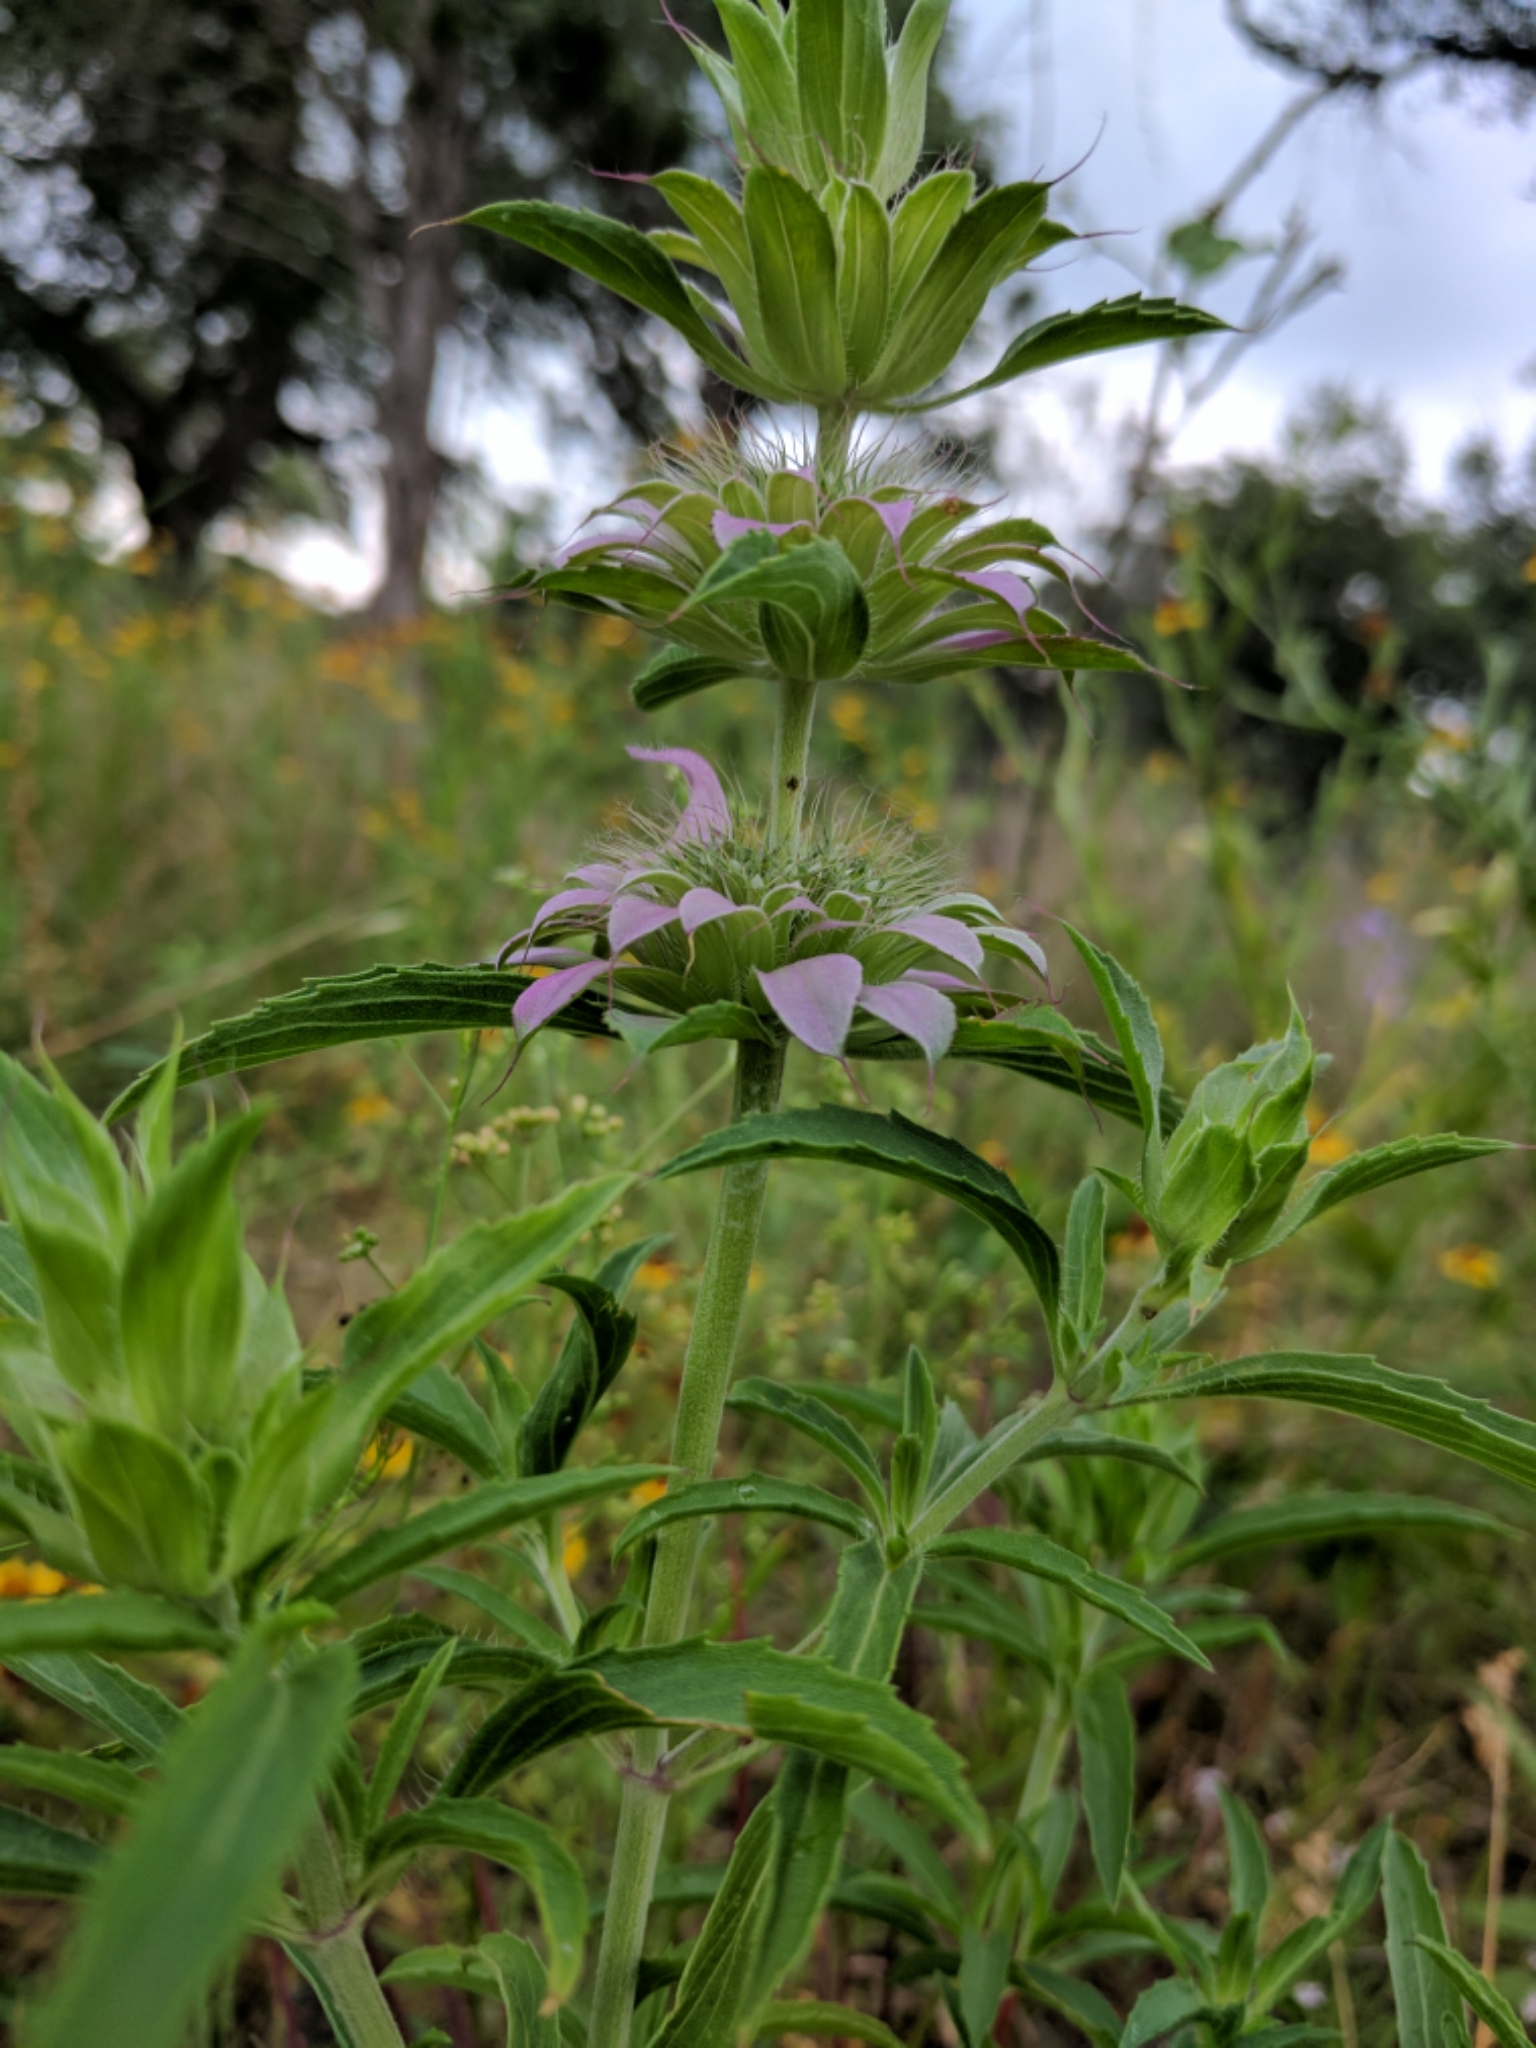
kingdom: Plantae
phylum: Tracheophyta
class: Magnoliopsida
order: Lamiales
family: Lamiaceae
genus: Monarda
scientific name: Monarda citriodora
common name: Lemon beebalm
